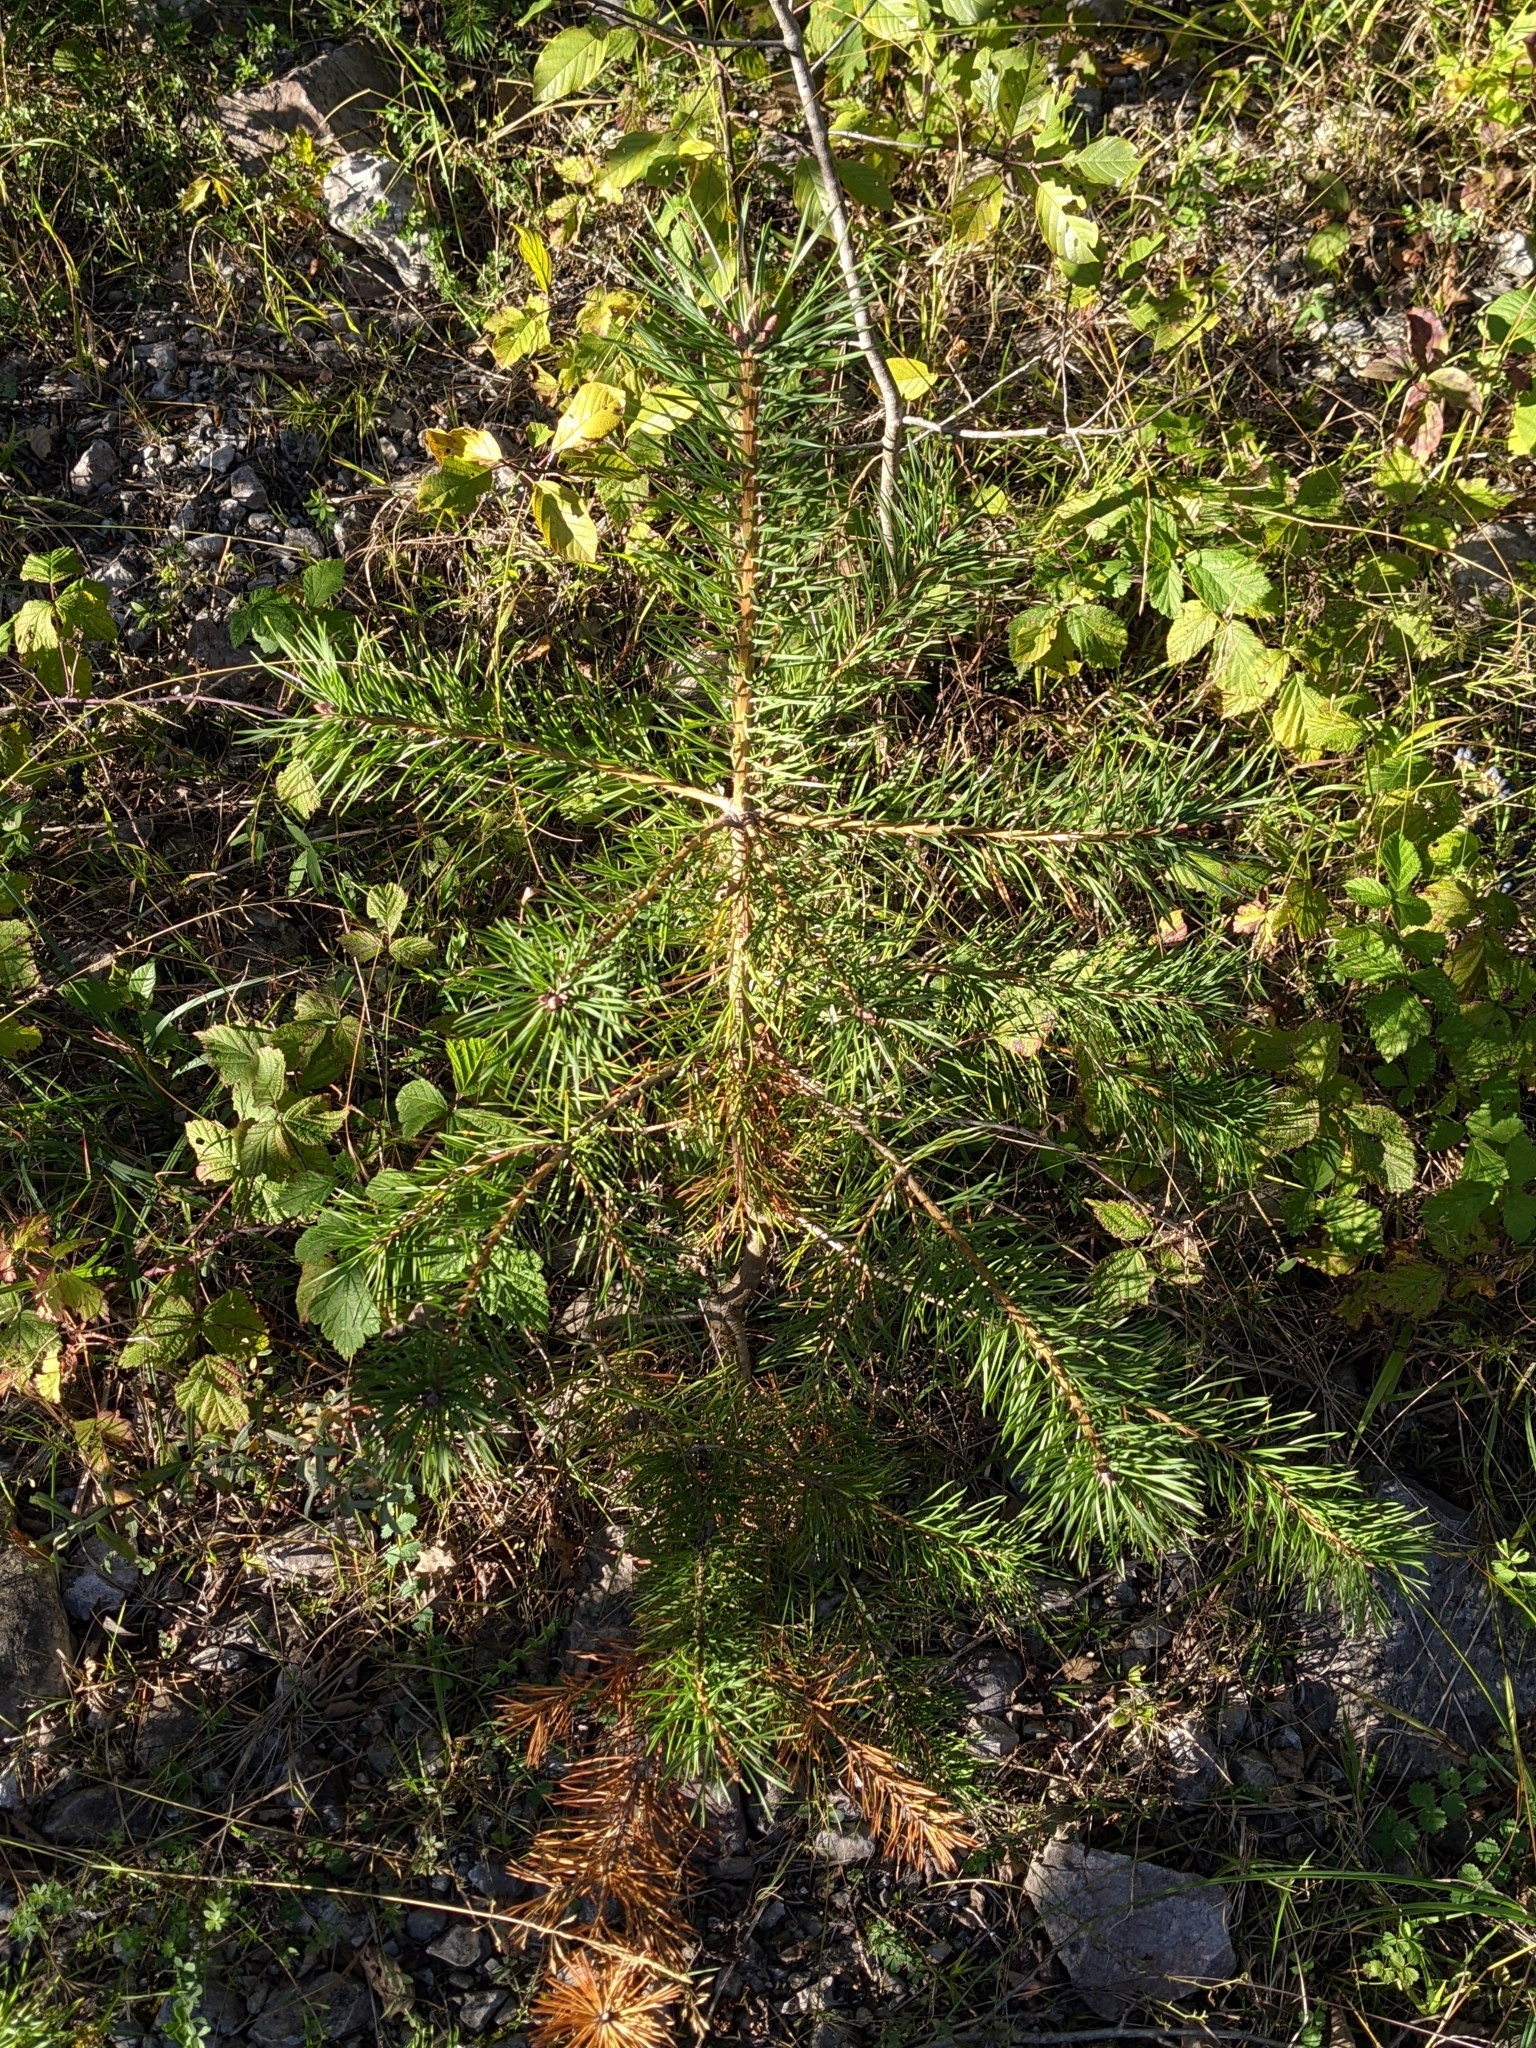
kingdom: Plantae
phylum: Tracheophyta
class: Pinopsida
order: Pinales
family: Pinaceae
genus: Pinus
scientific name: Pinus sylvestris
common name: Scots pine
